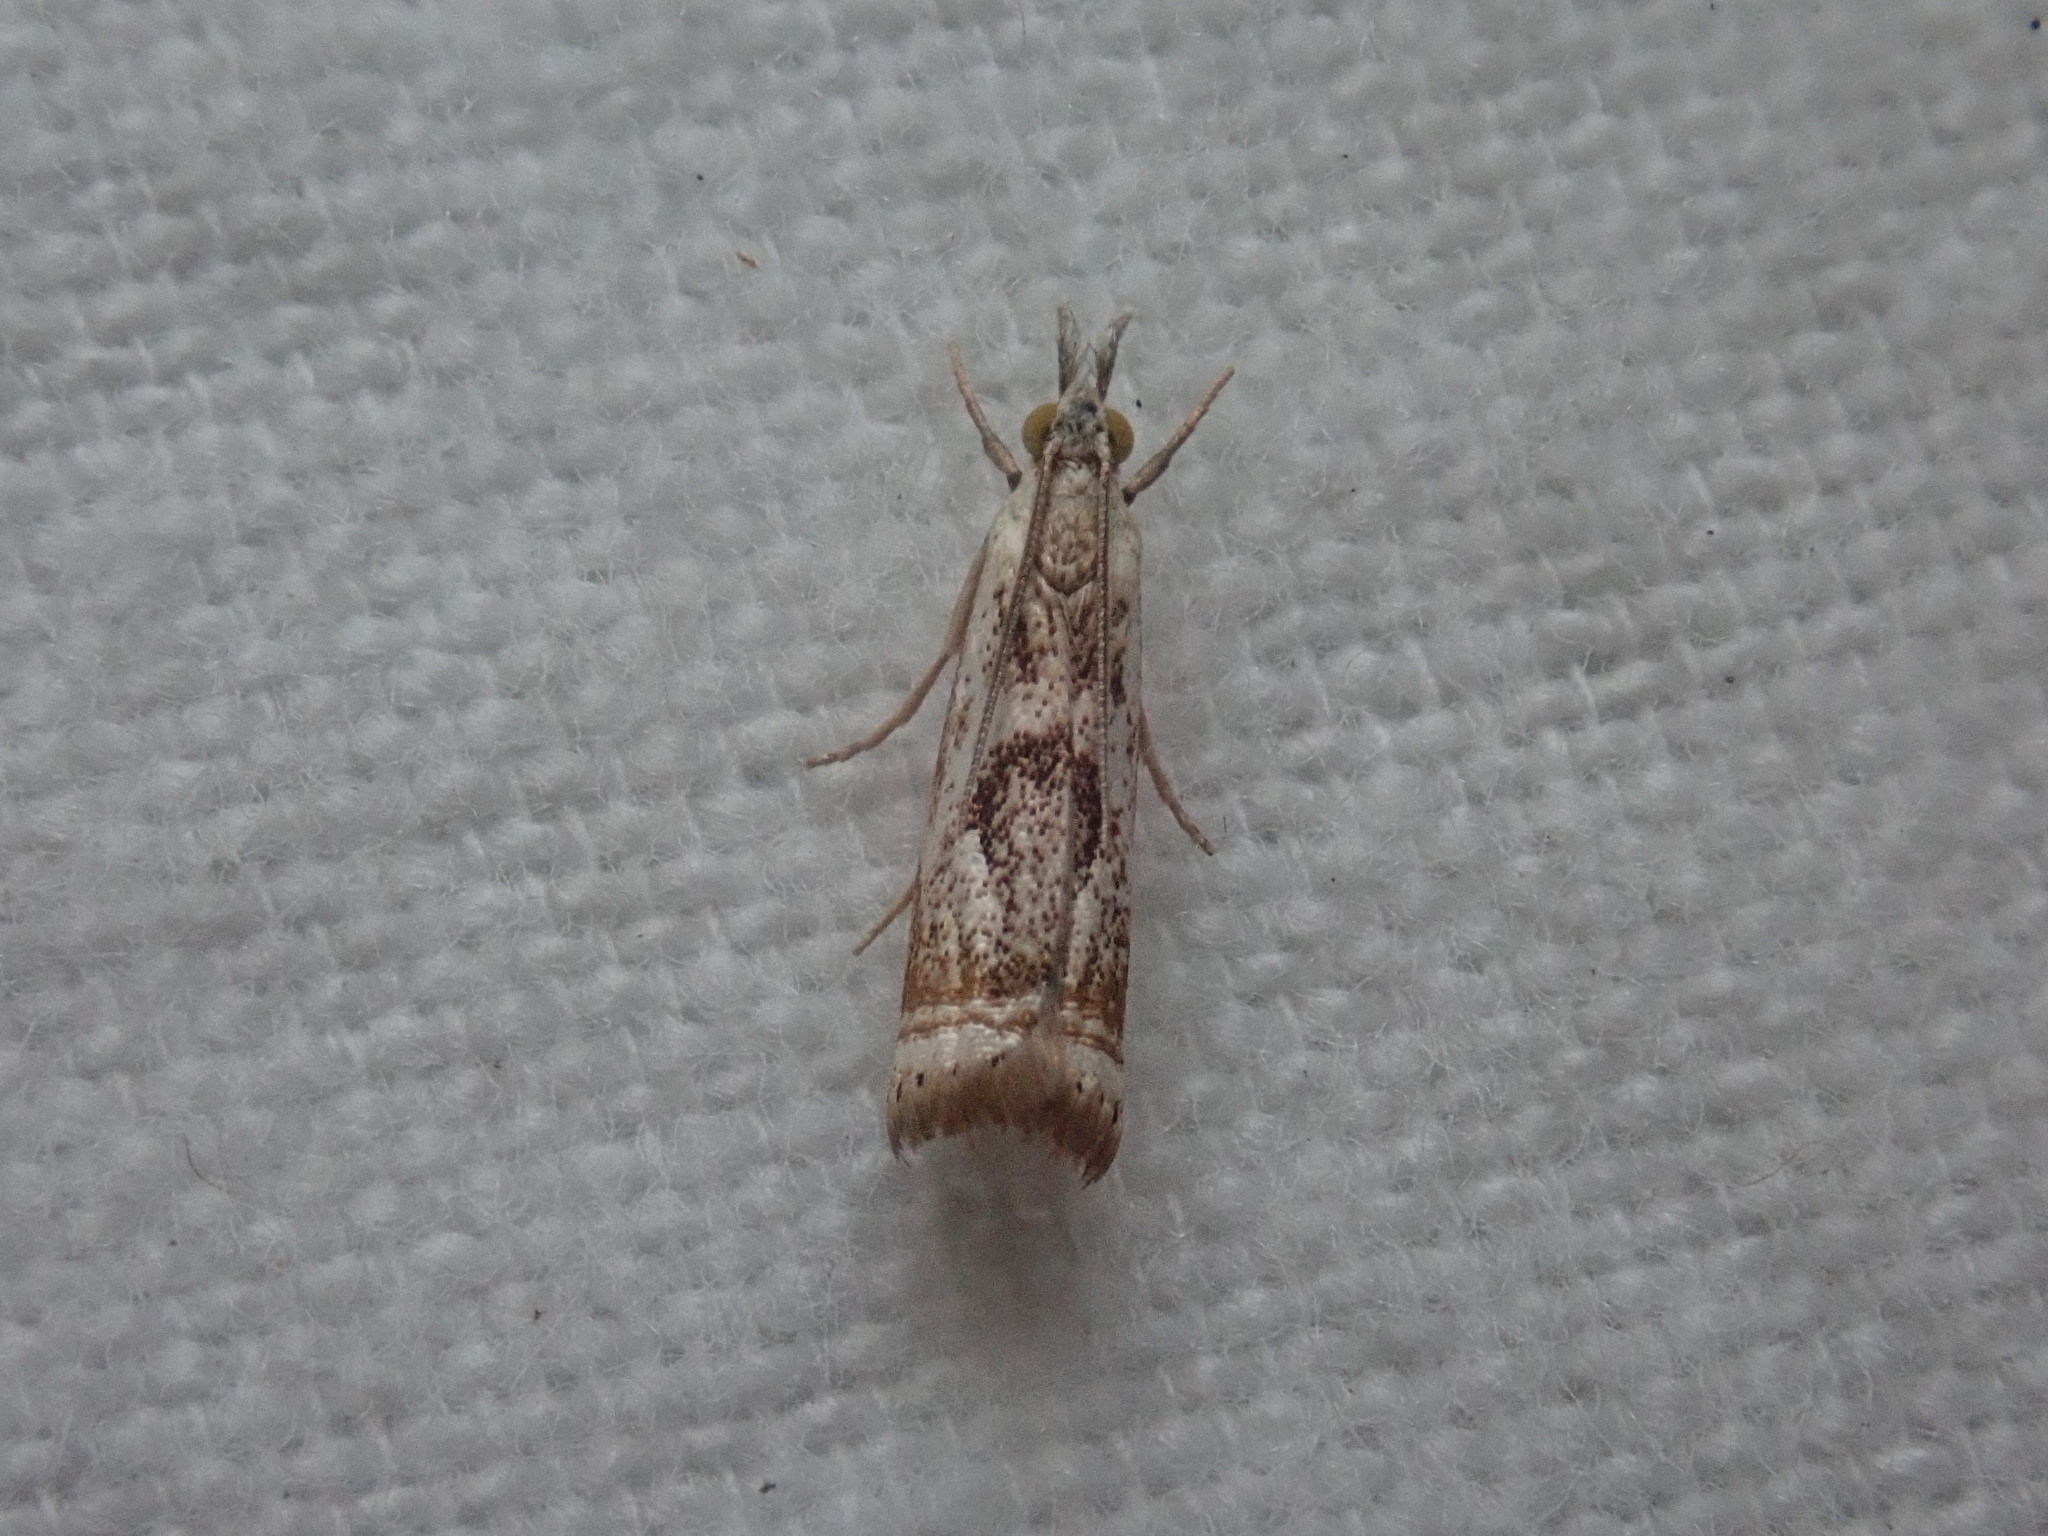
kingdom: Animalia
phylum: Arthropoda
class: Insecta
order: Lepidoptera
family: Crambidae
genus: Microcrambus
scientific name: Microcrambus elegans
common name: Elegant grass-veneer
